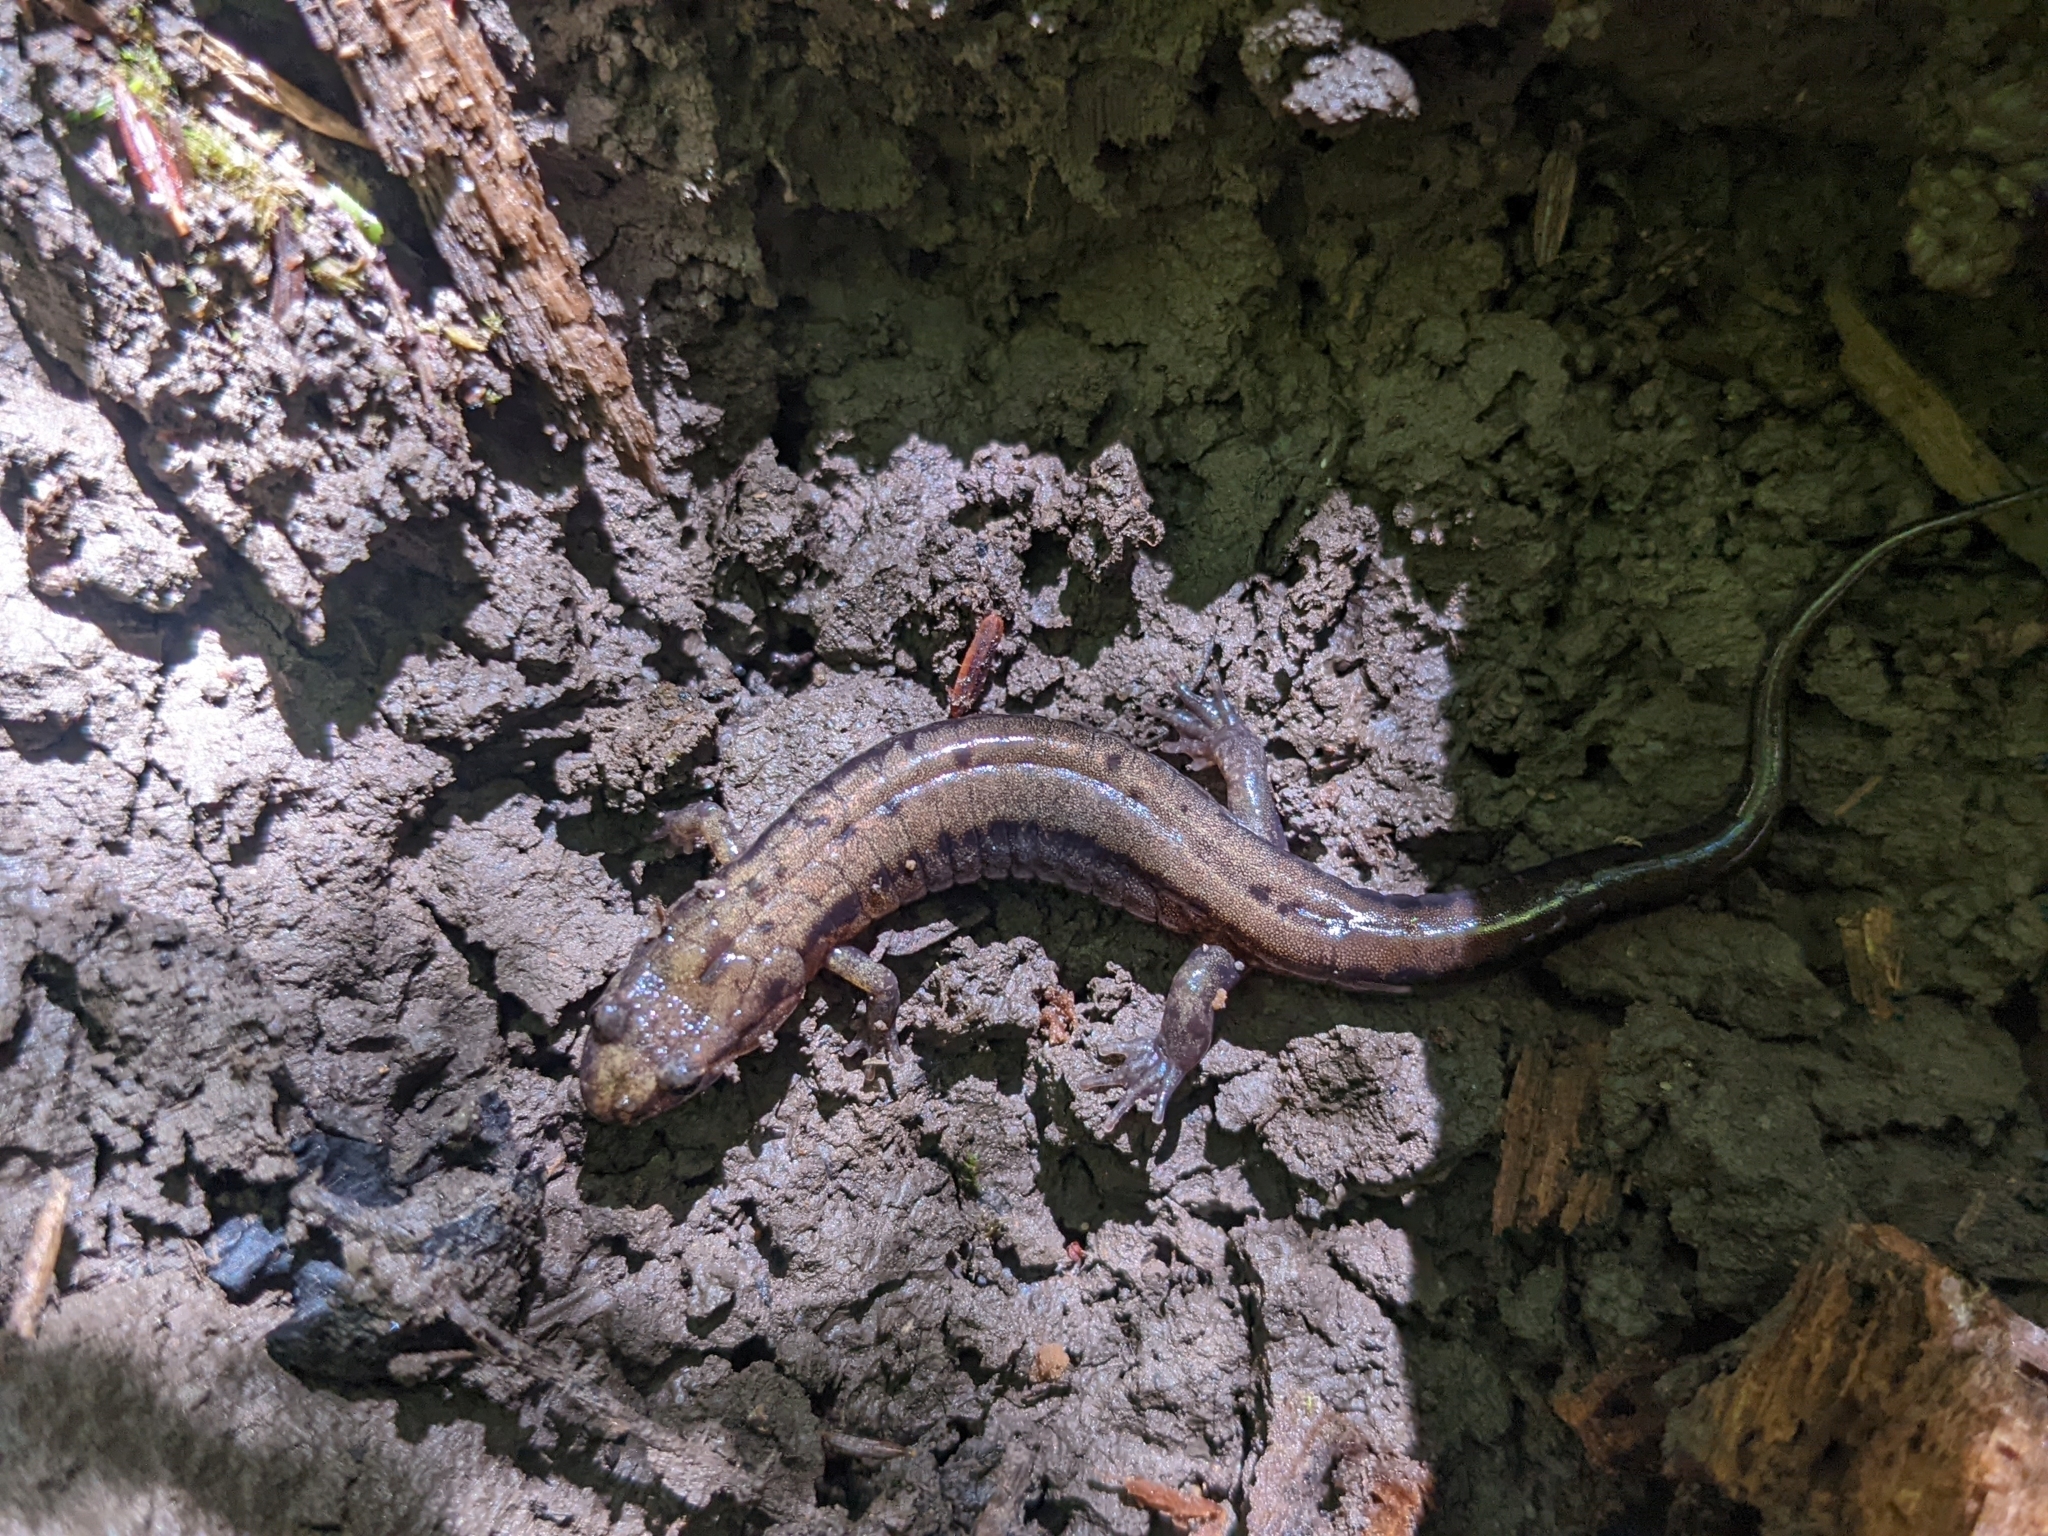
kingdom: Animalia
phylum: Chordata
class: Amphibia
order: Caudata
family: Plethodontidae
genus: Desmognathus
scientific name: Desmognathus ochrophaeus
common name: Allegheny mountain dusky salamander
